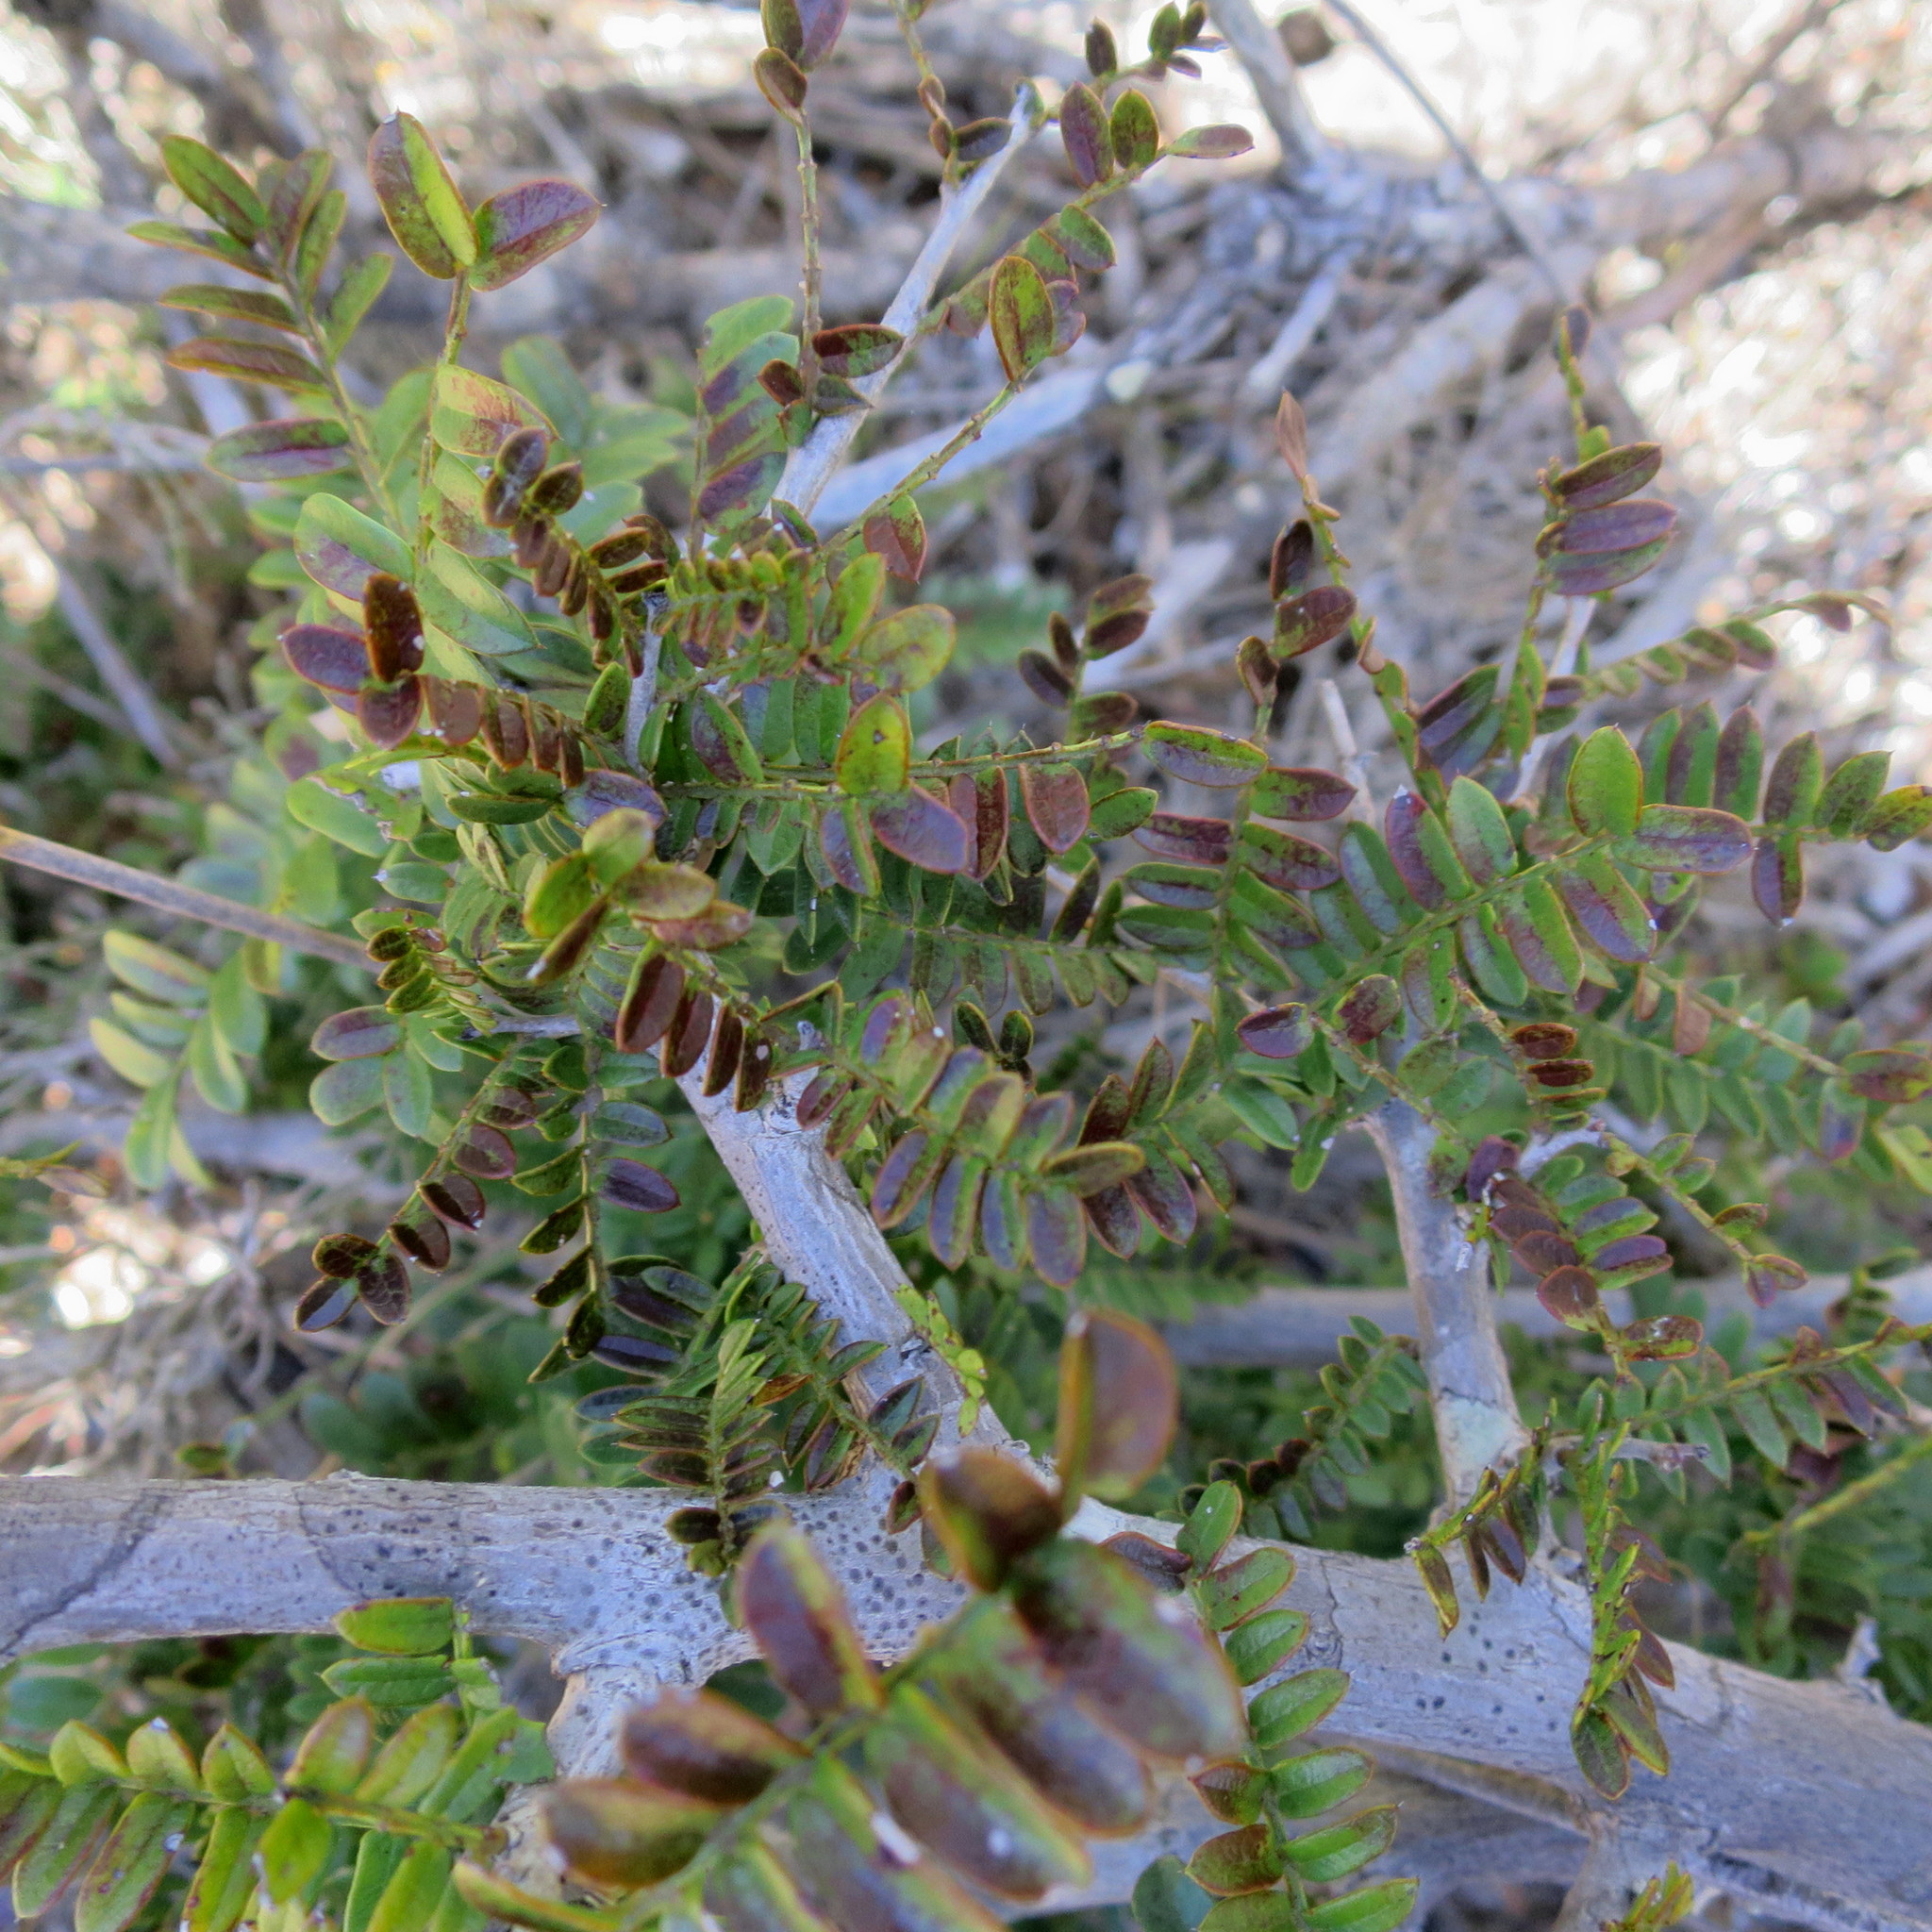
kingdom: Plantae
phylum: Tracheophyta
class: Magnoliopsida
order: Fabales
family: Fabaceae
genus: Schotia
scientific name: Schotia afra
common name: Hottentot's bean
